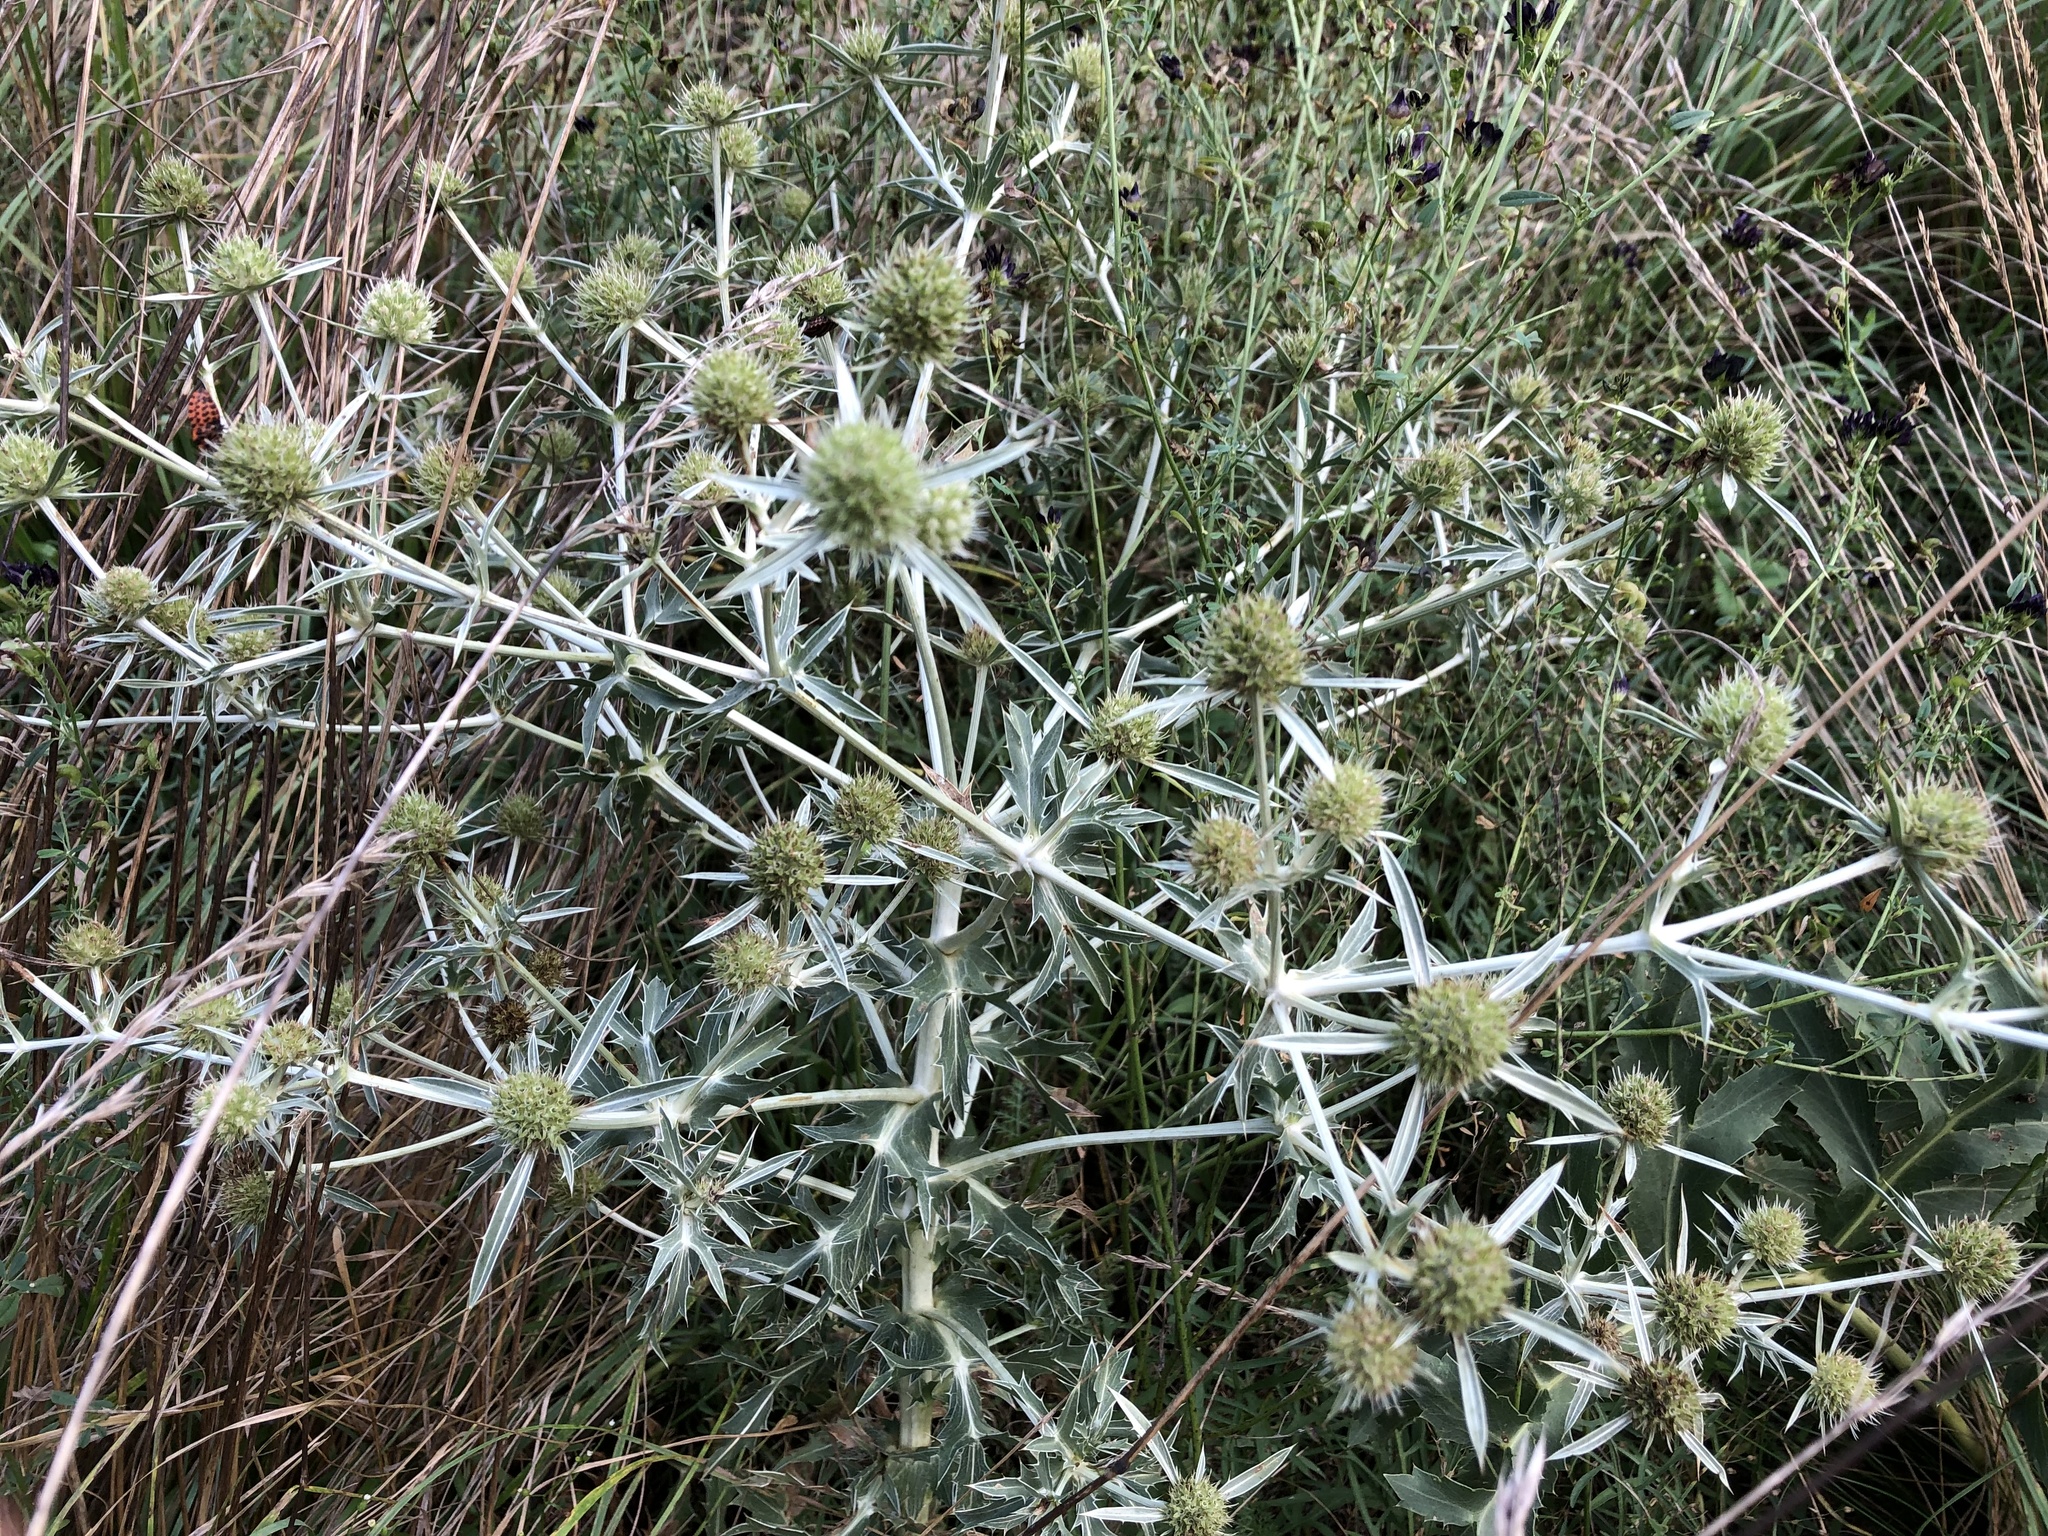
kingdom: Plantae
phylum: Tracheophyta
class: Magnoliopsida
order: Apiales
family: Apiaceae
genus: Eryngium
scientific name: Eryngium campestre
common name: Field eryngo
